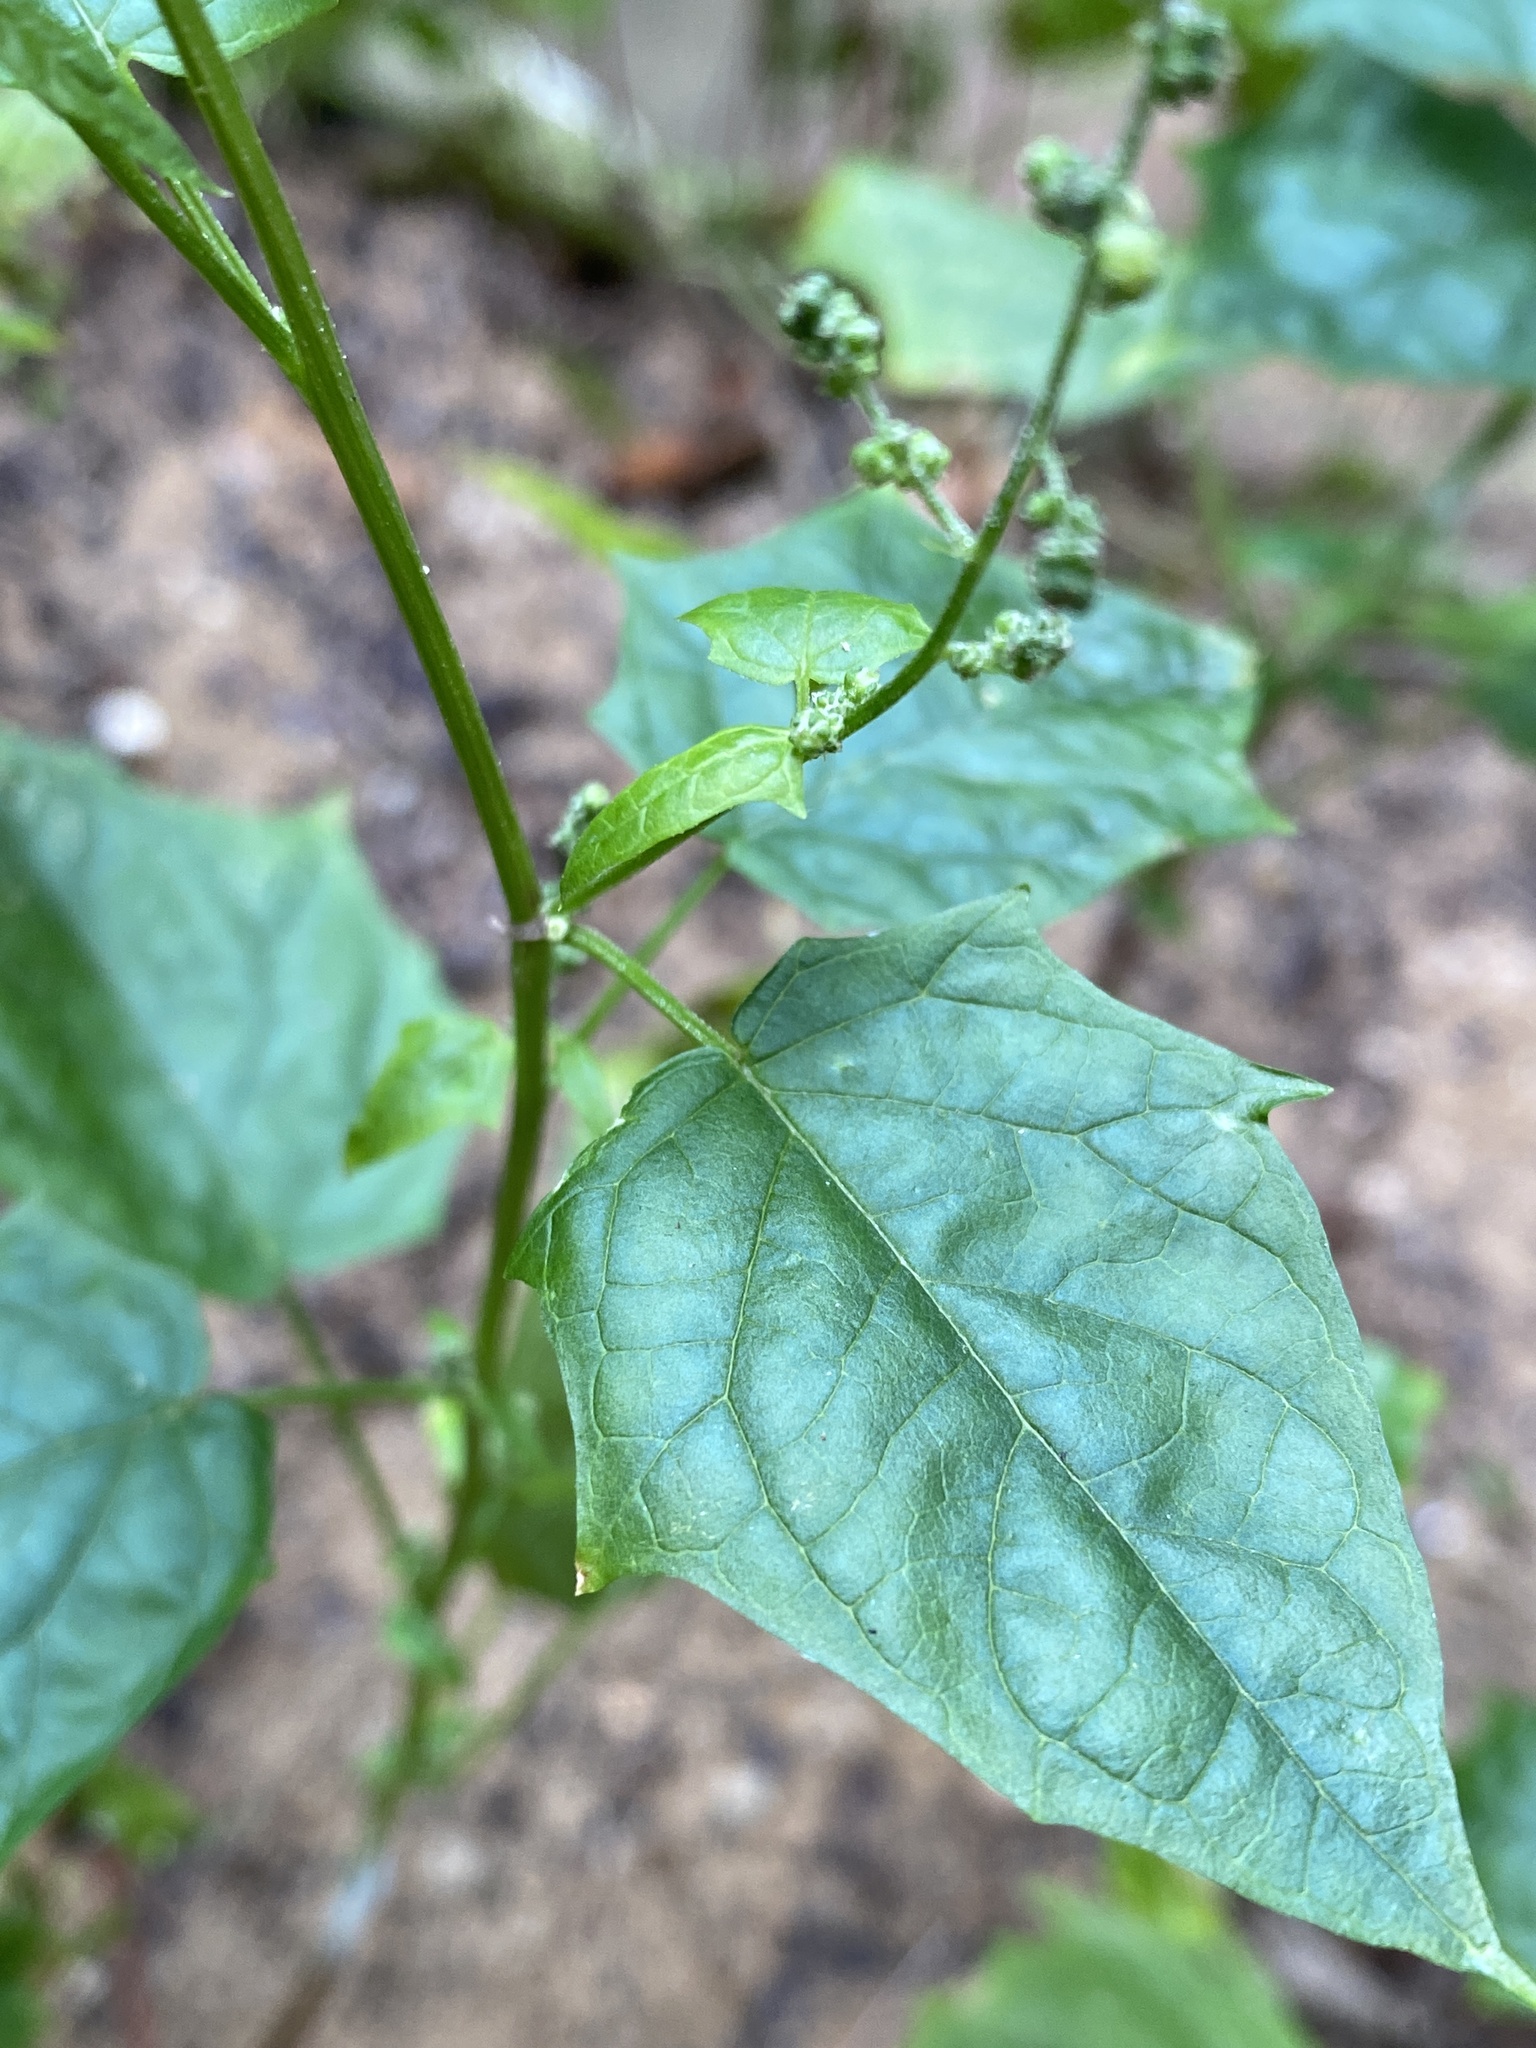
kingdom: Plantae
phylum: Tracheophyta
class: Magnoliopsida
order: Caryophyllales
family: Amaranthaceae
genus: Chenopodiastrum
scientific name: Chenopodiastrum simplex
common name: Large-seed goosefoot
